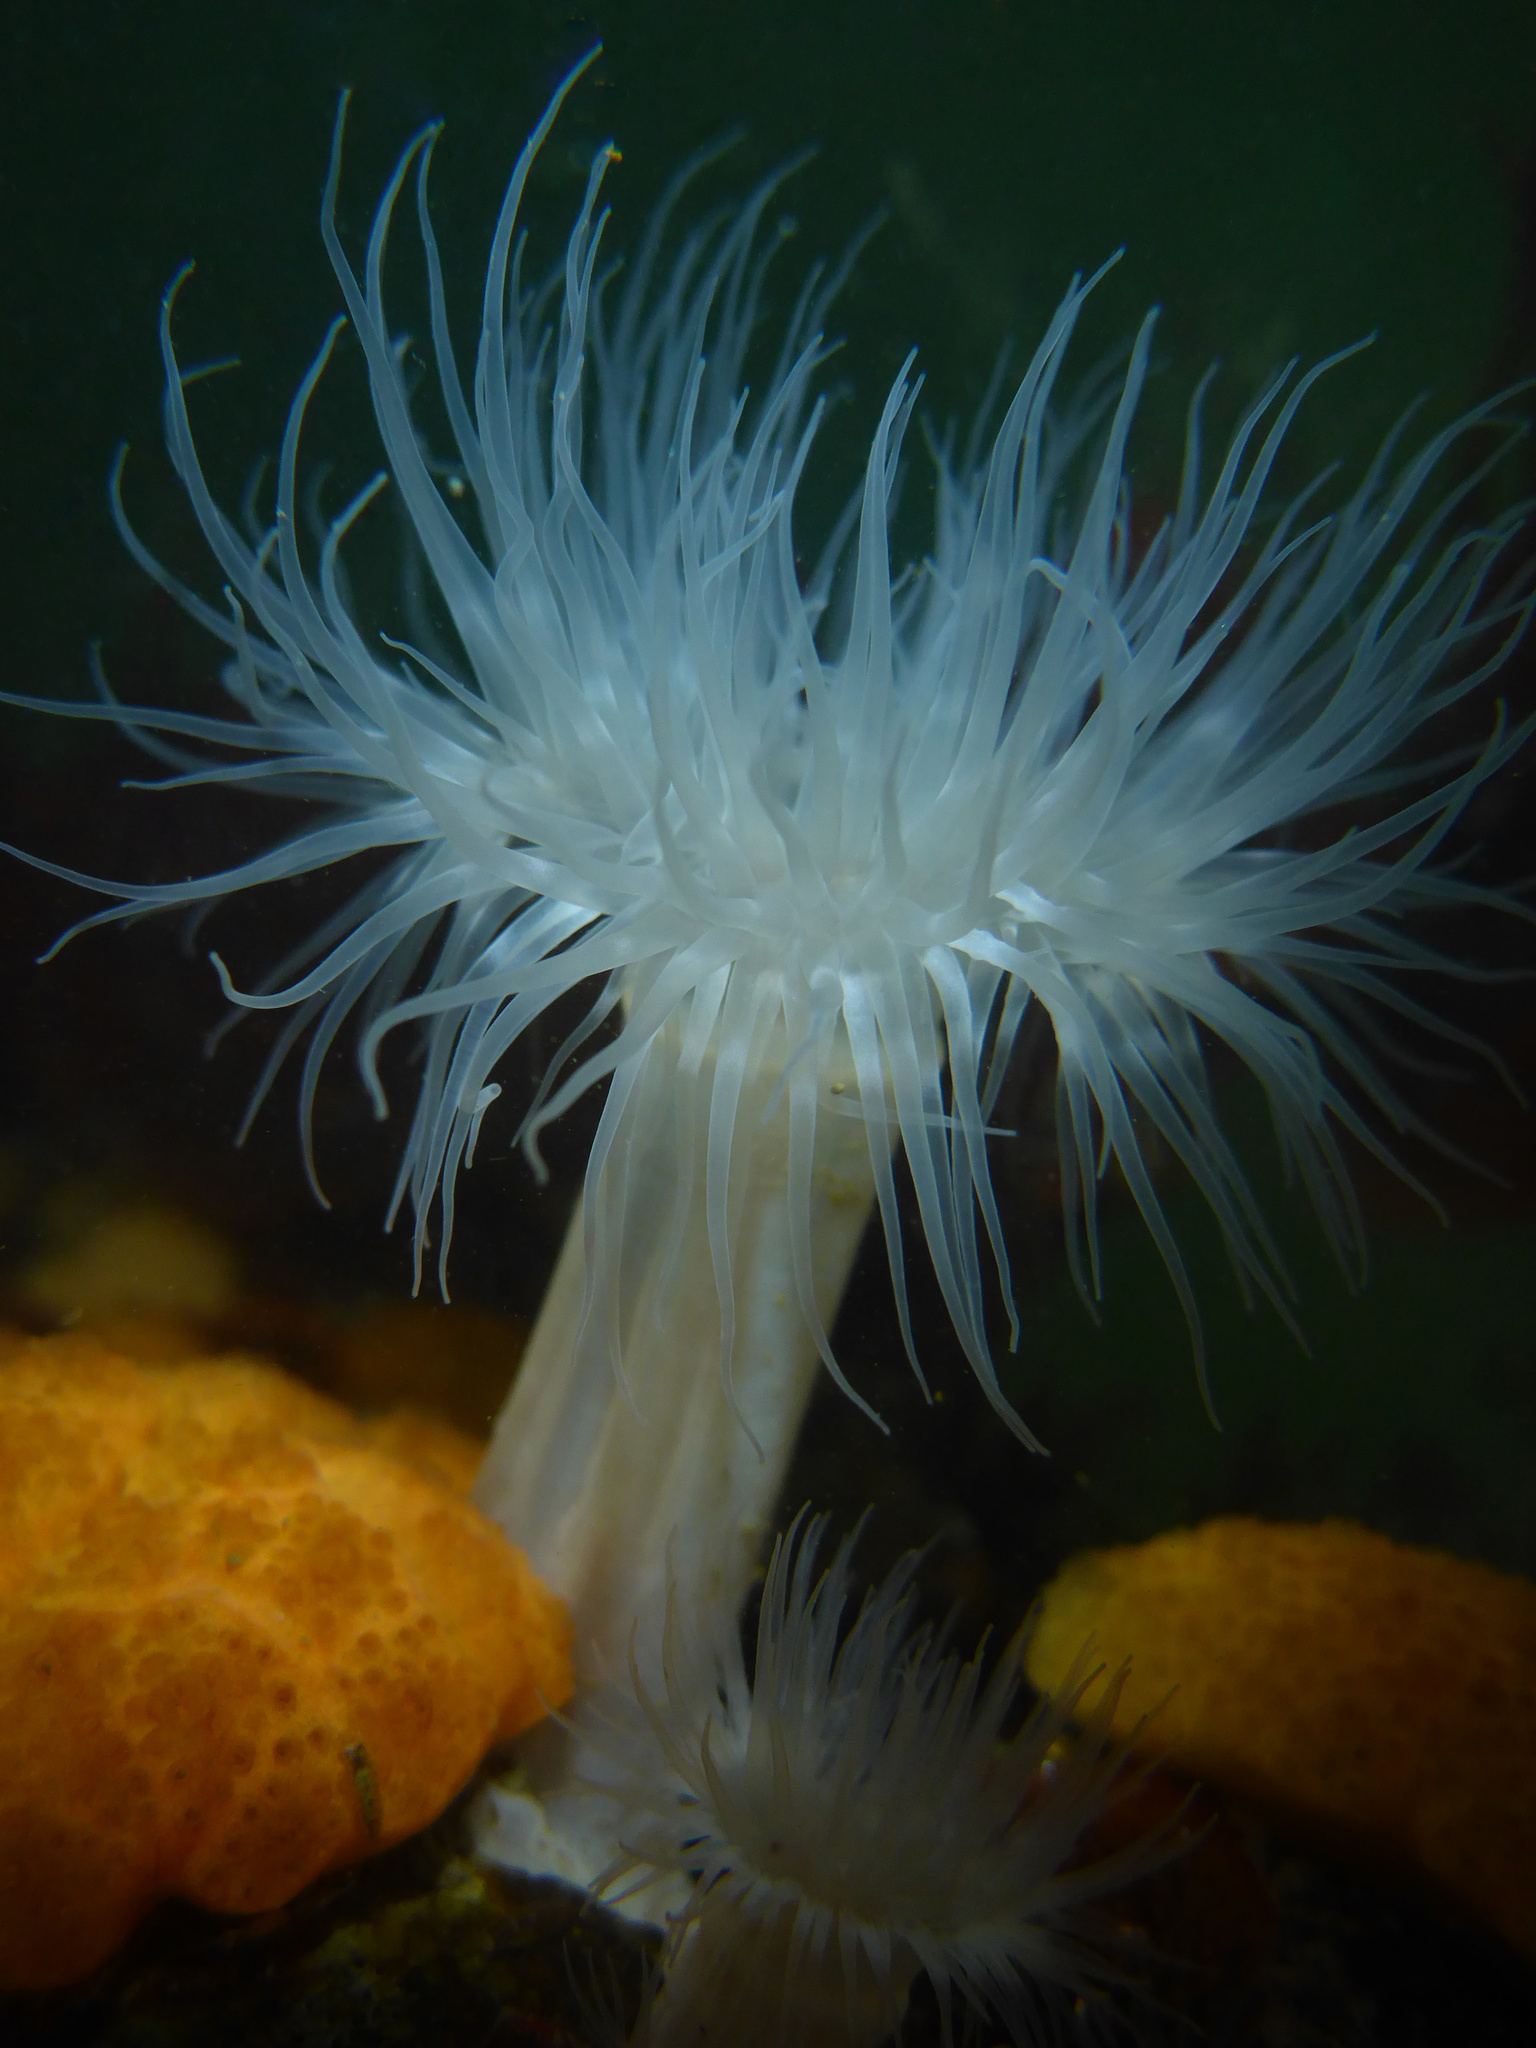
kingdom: Animalia
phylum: Cnidaria
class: Anthozoa
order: Actiniaria
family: Metridiidae
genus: Metridium
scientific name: Metridium senile
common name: Clonal plumose anemone
